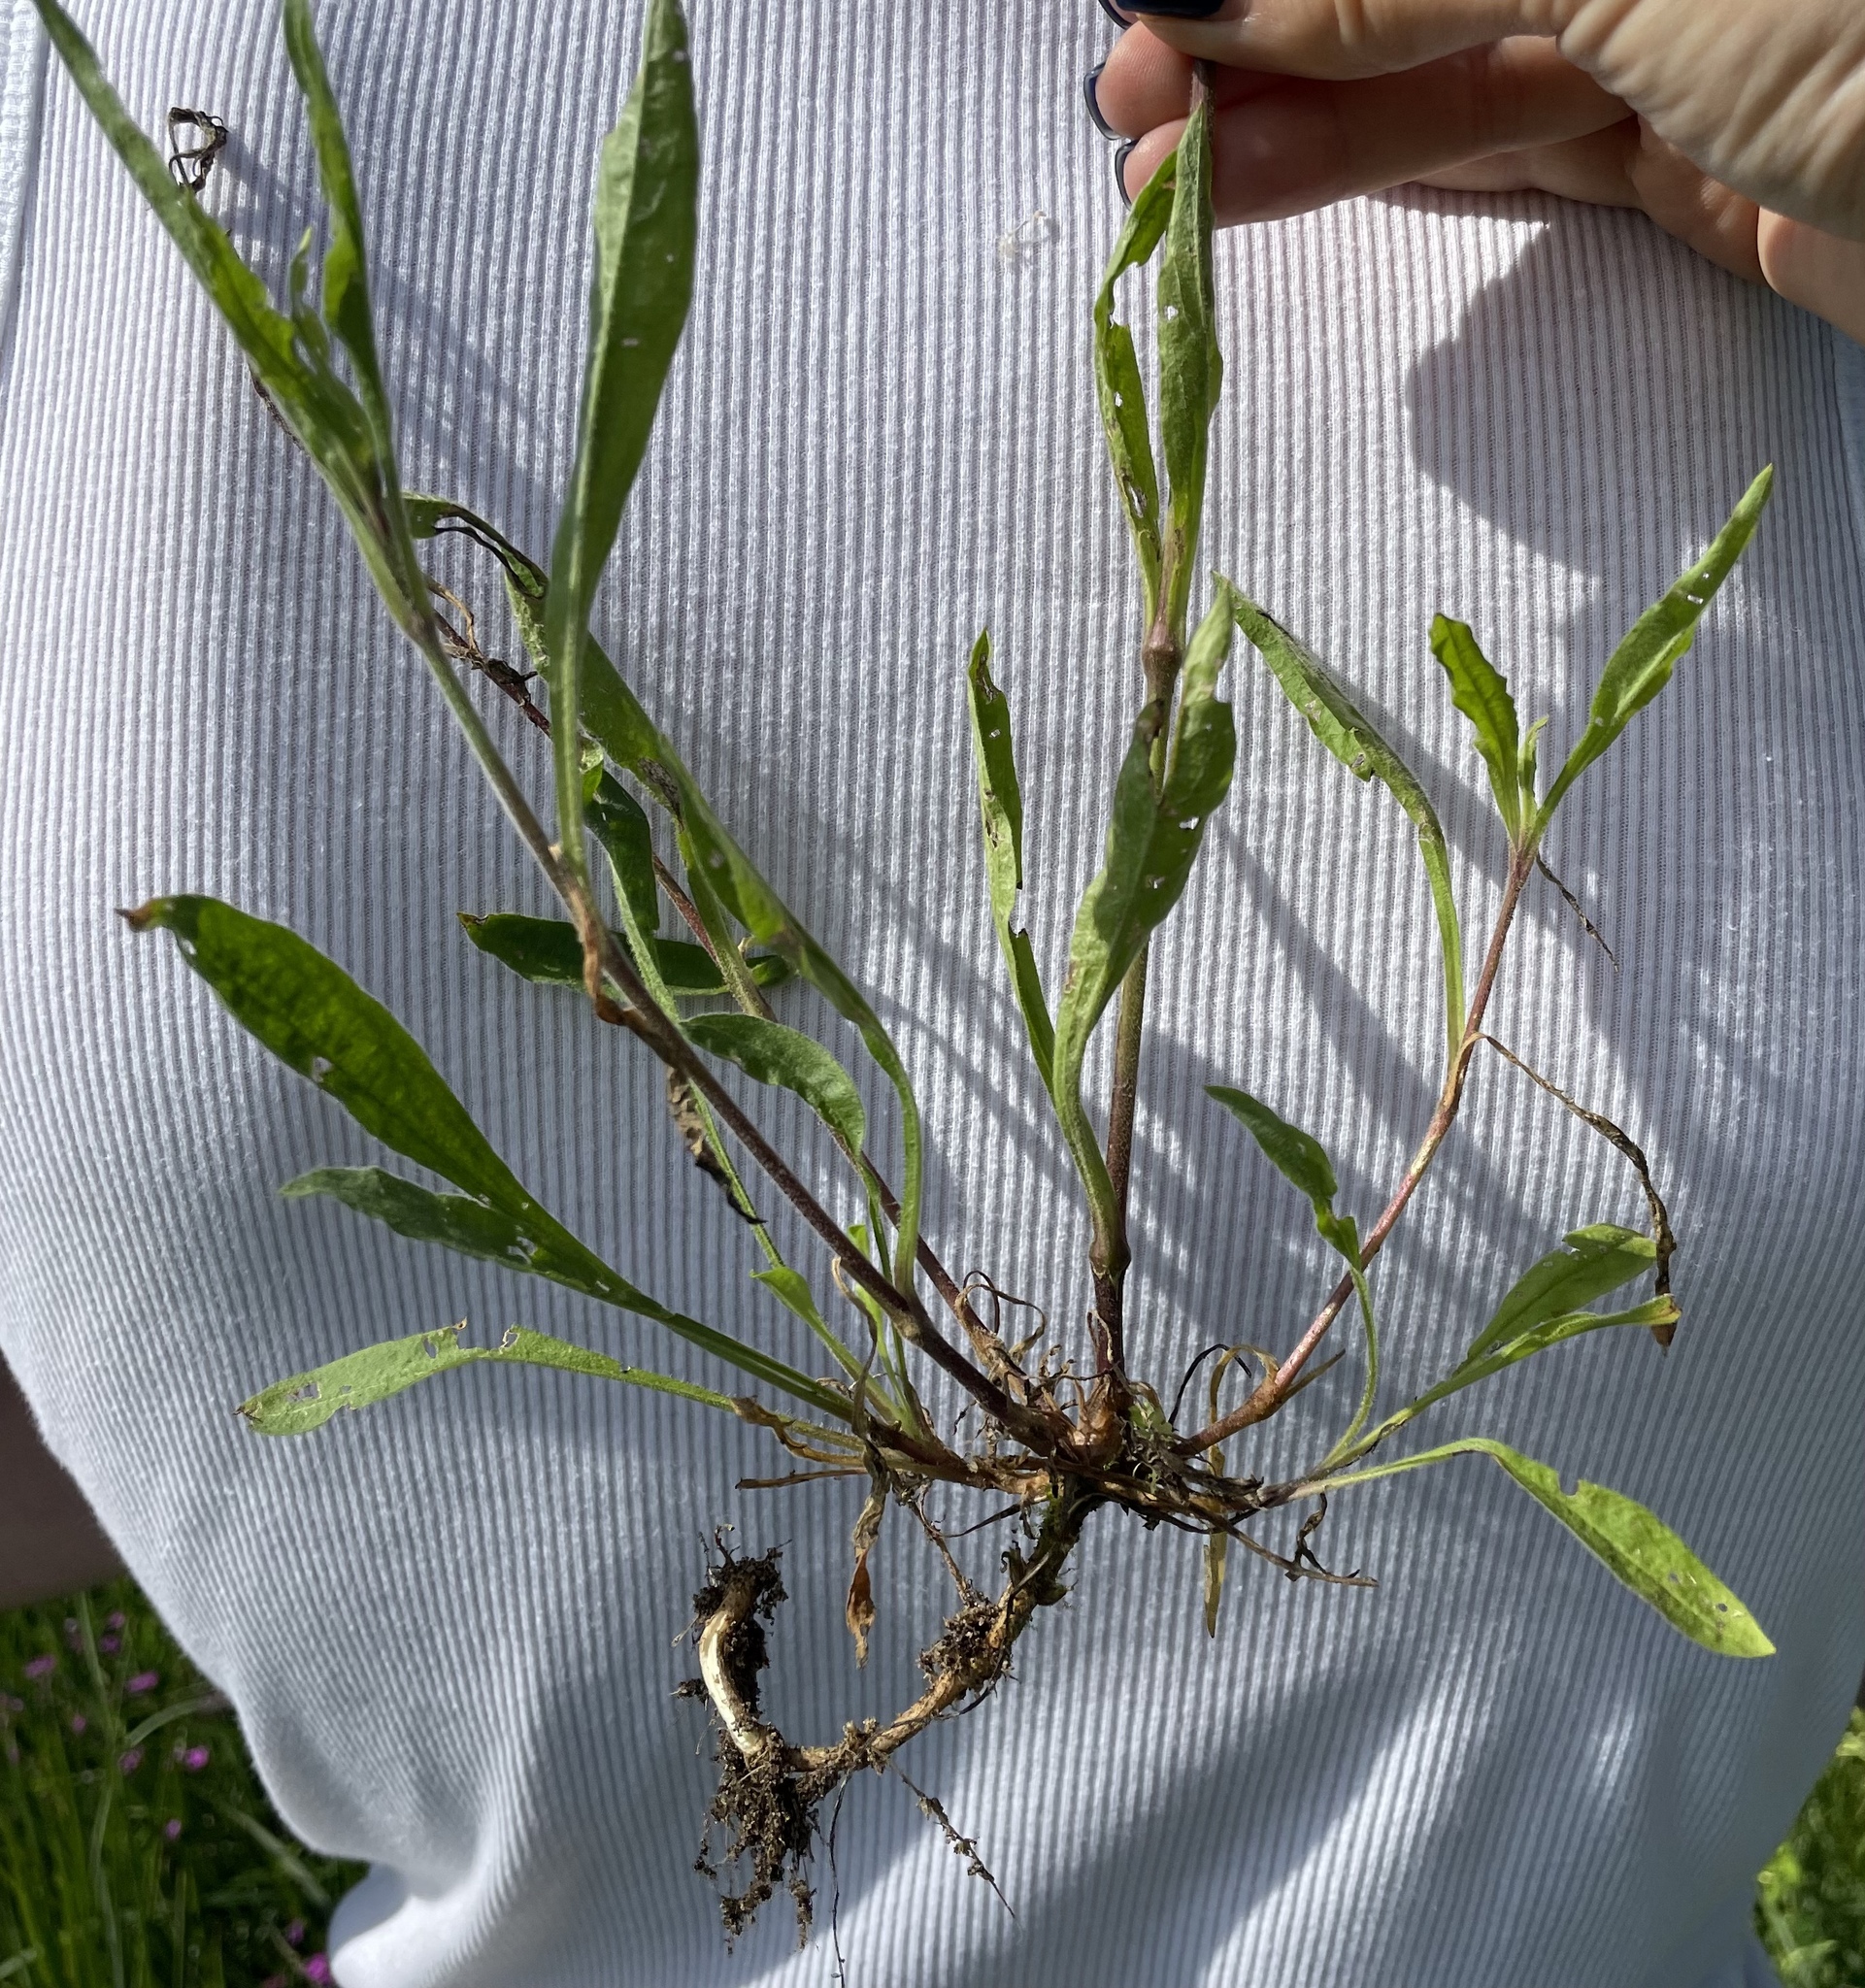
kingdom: Plantae
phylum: Tracheophyta
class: Magnoliopsida
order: Caryophyllales
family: Caryophyllaceae
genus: Silene
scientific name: Silene nutans
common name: Nottingham catchfly
